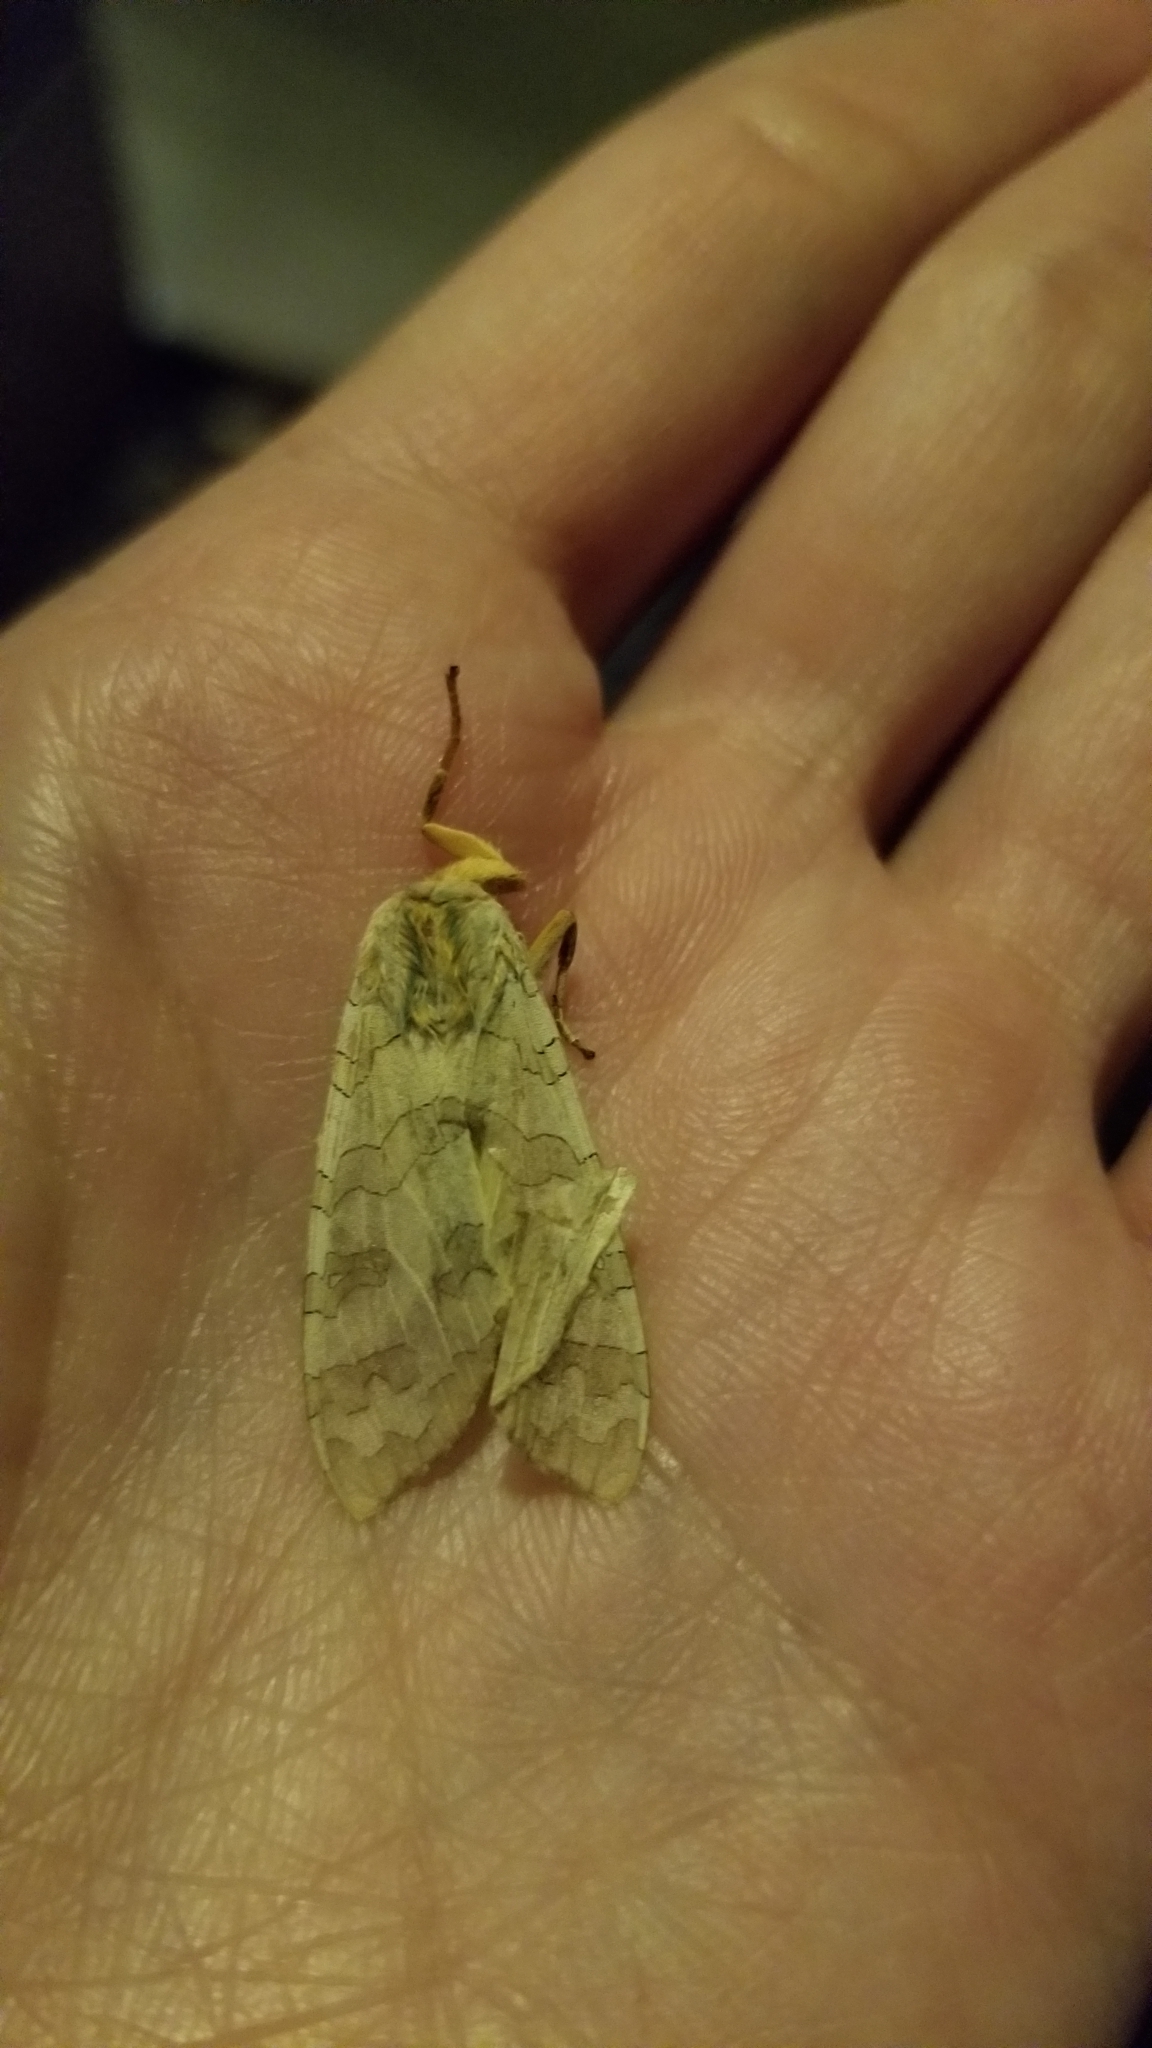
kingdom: Animalia
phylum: Arthropoda
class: Insecta
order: Lepidoptera
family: Erebidae
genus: Halysidota
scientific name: Halysidota
